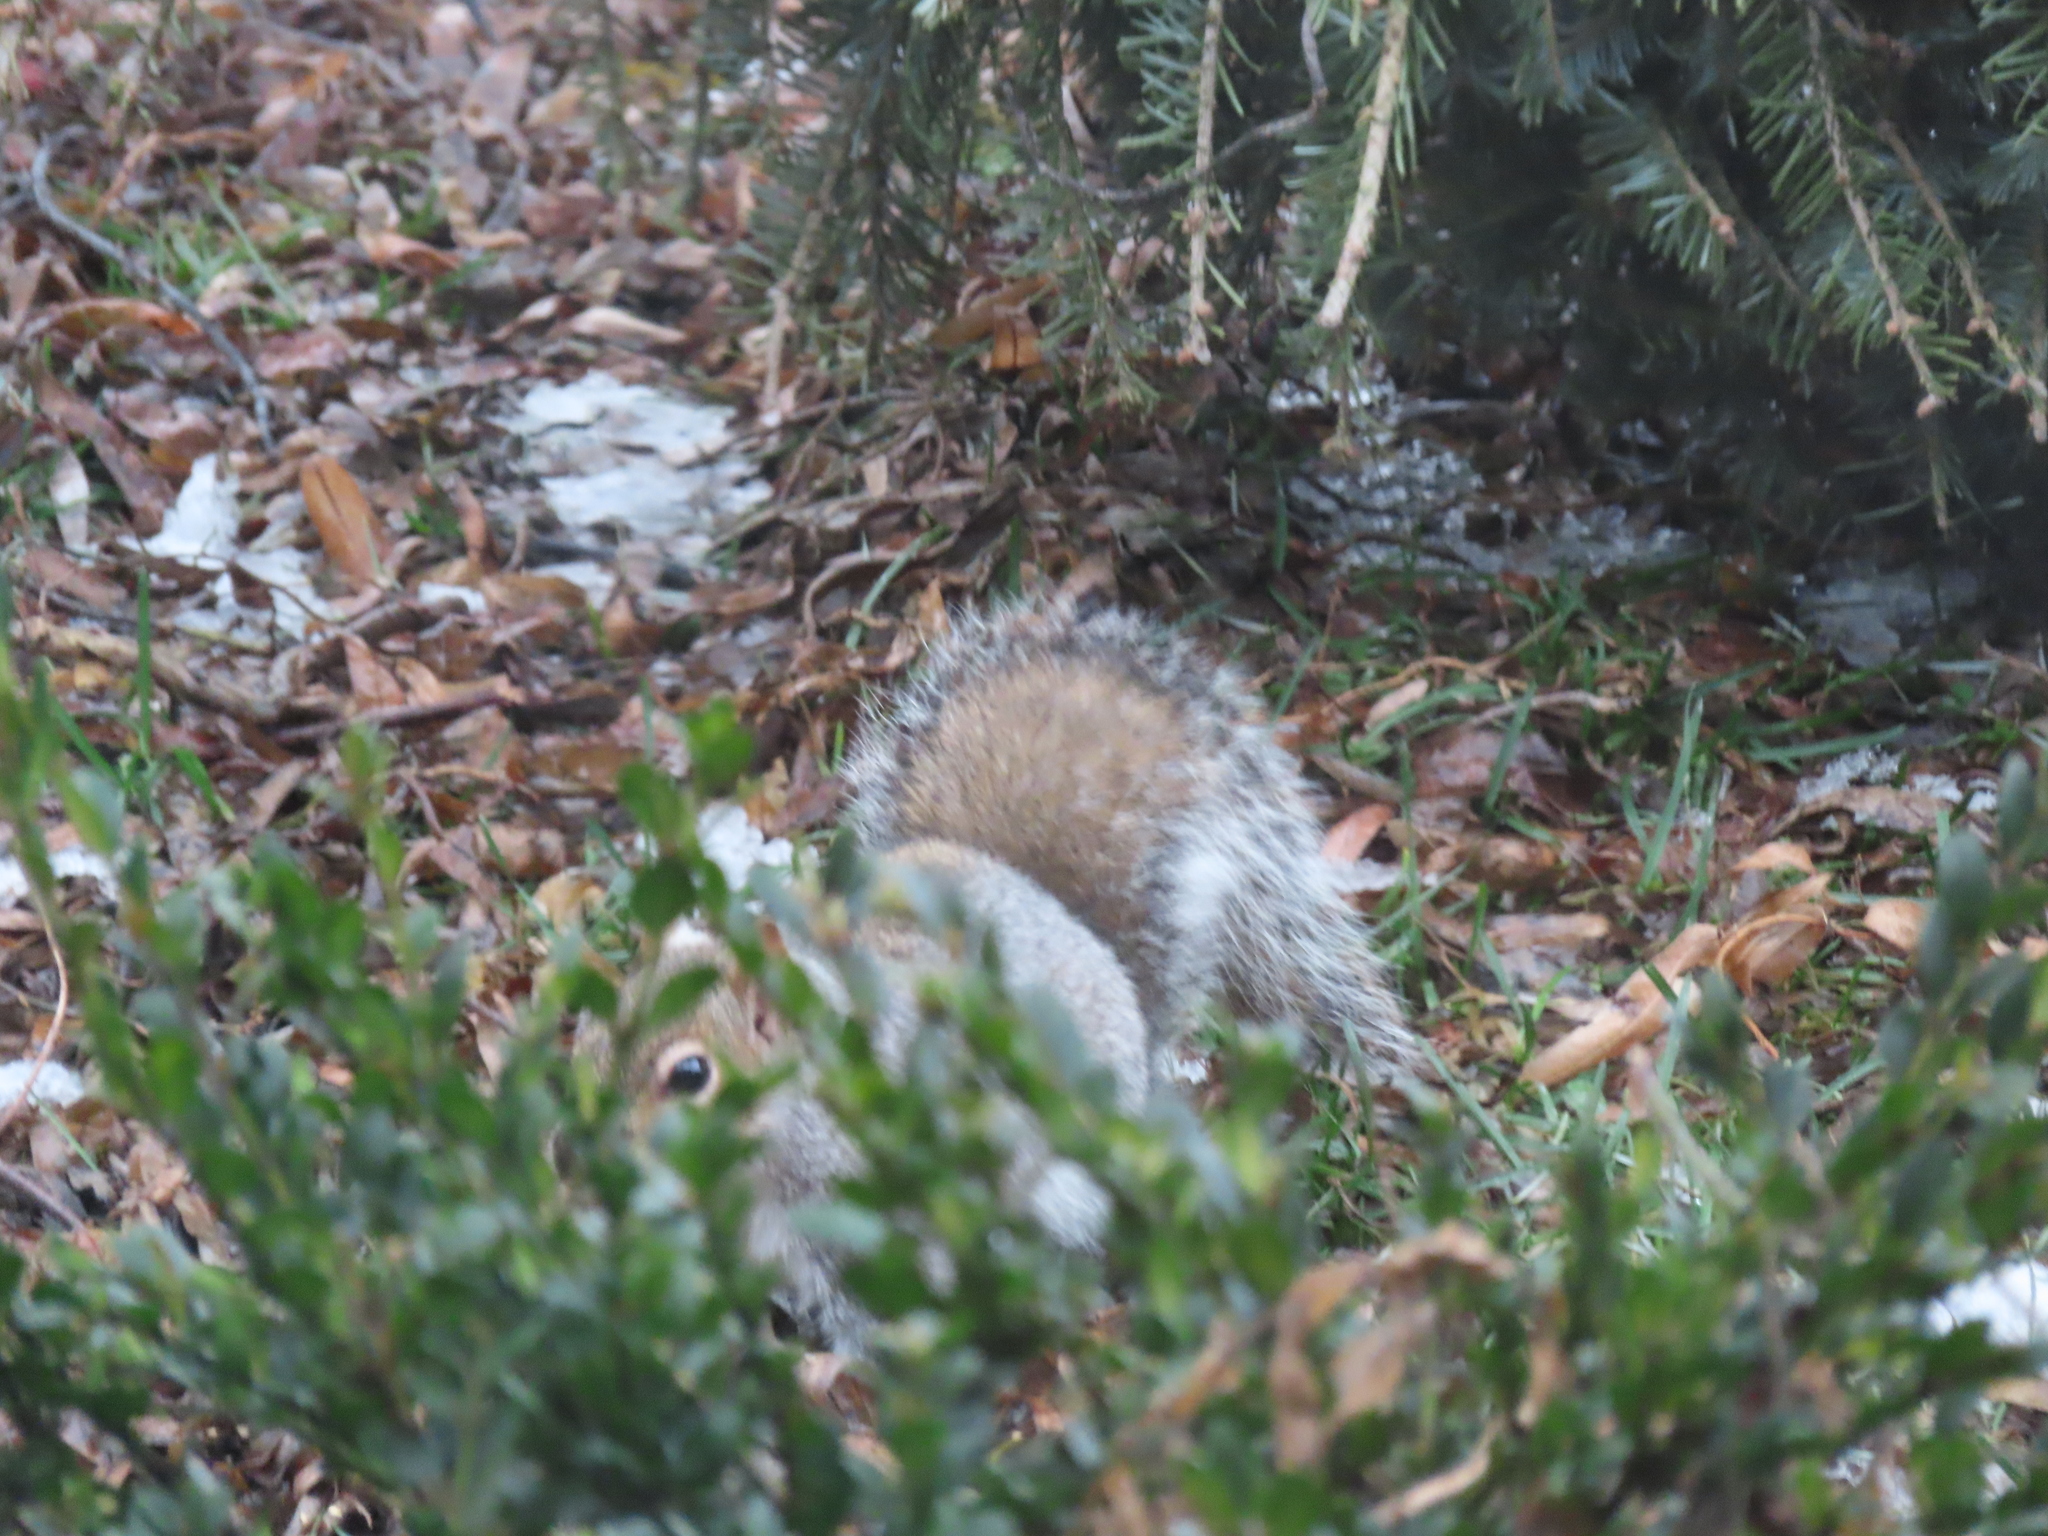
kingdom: Animalia
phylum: Chordata
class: Mammalia
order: Rodentia
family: Sciuridae
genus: Sciurus
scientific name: Sciurus carolinensis
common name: Eastern gray squirrel
